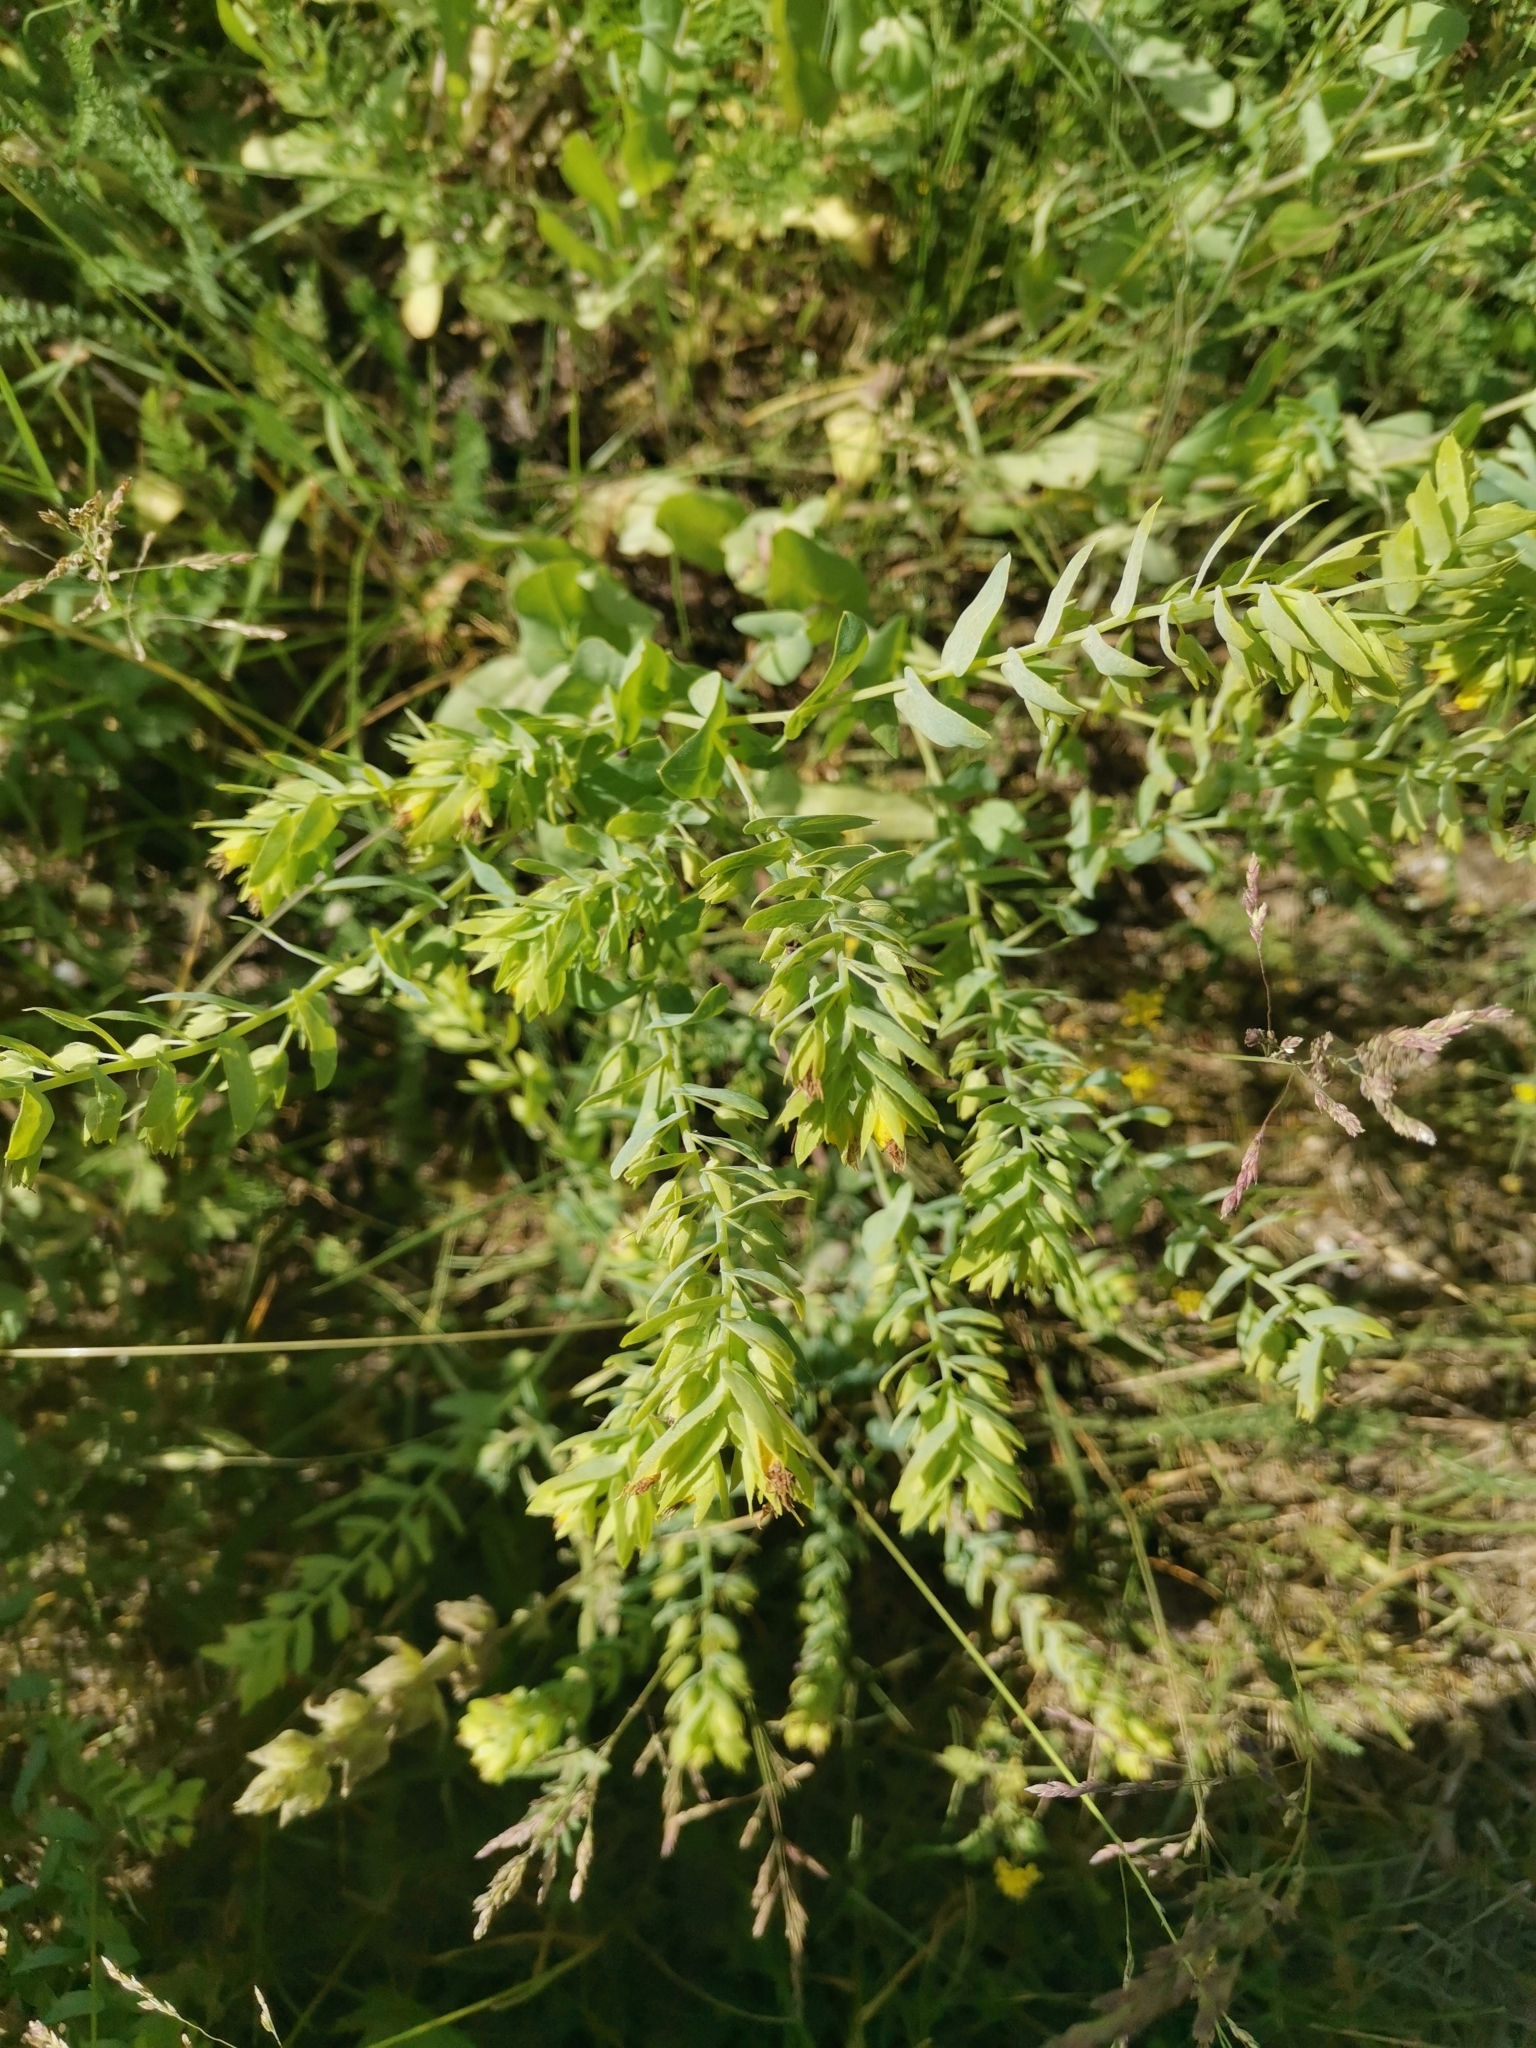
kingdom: Plantae
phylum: Tracheophyta
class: Magnoliopsida
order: Boraginales
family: Boraginaceae
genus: Cerinthe
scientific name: Cerinthe minor
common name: Lesser honeywort
